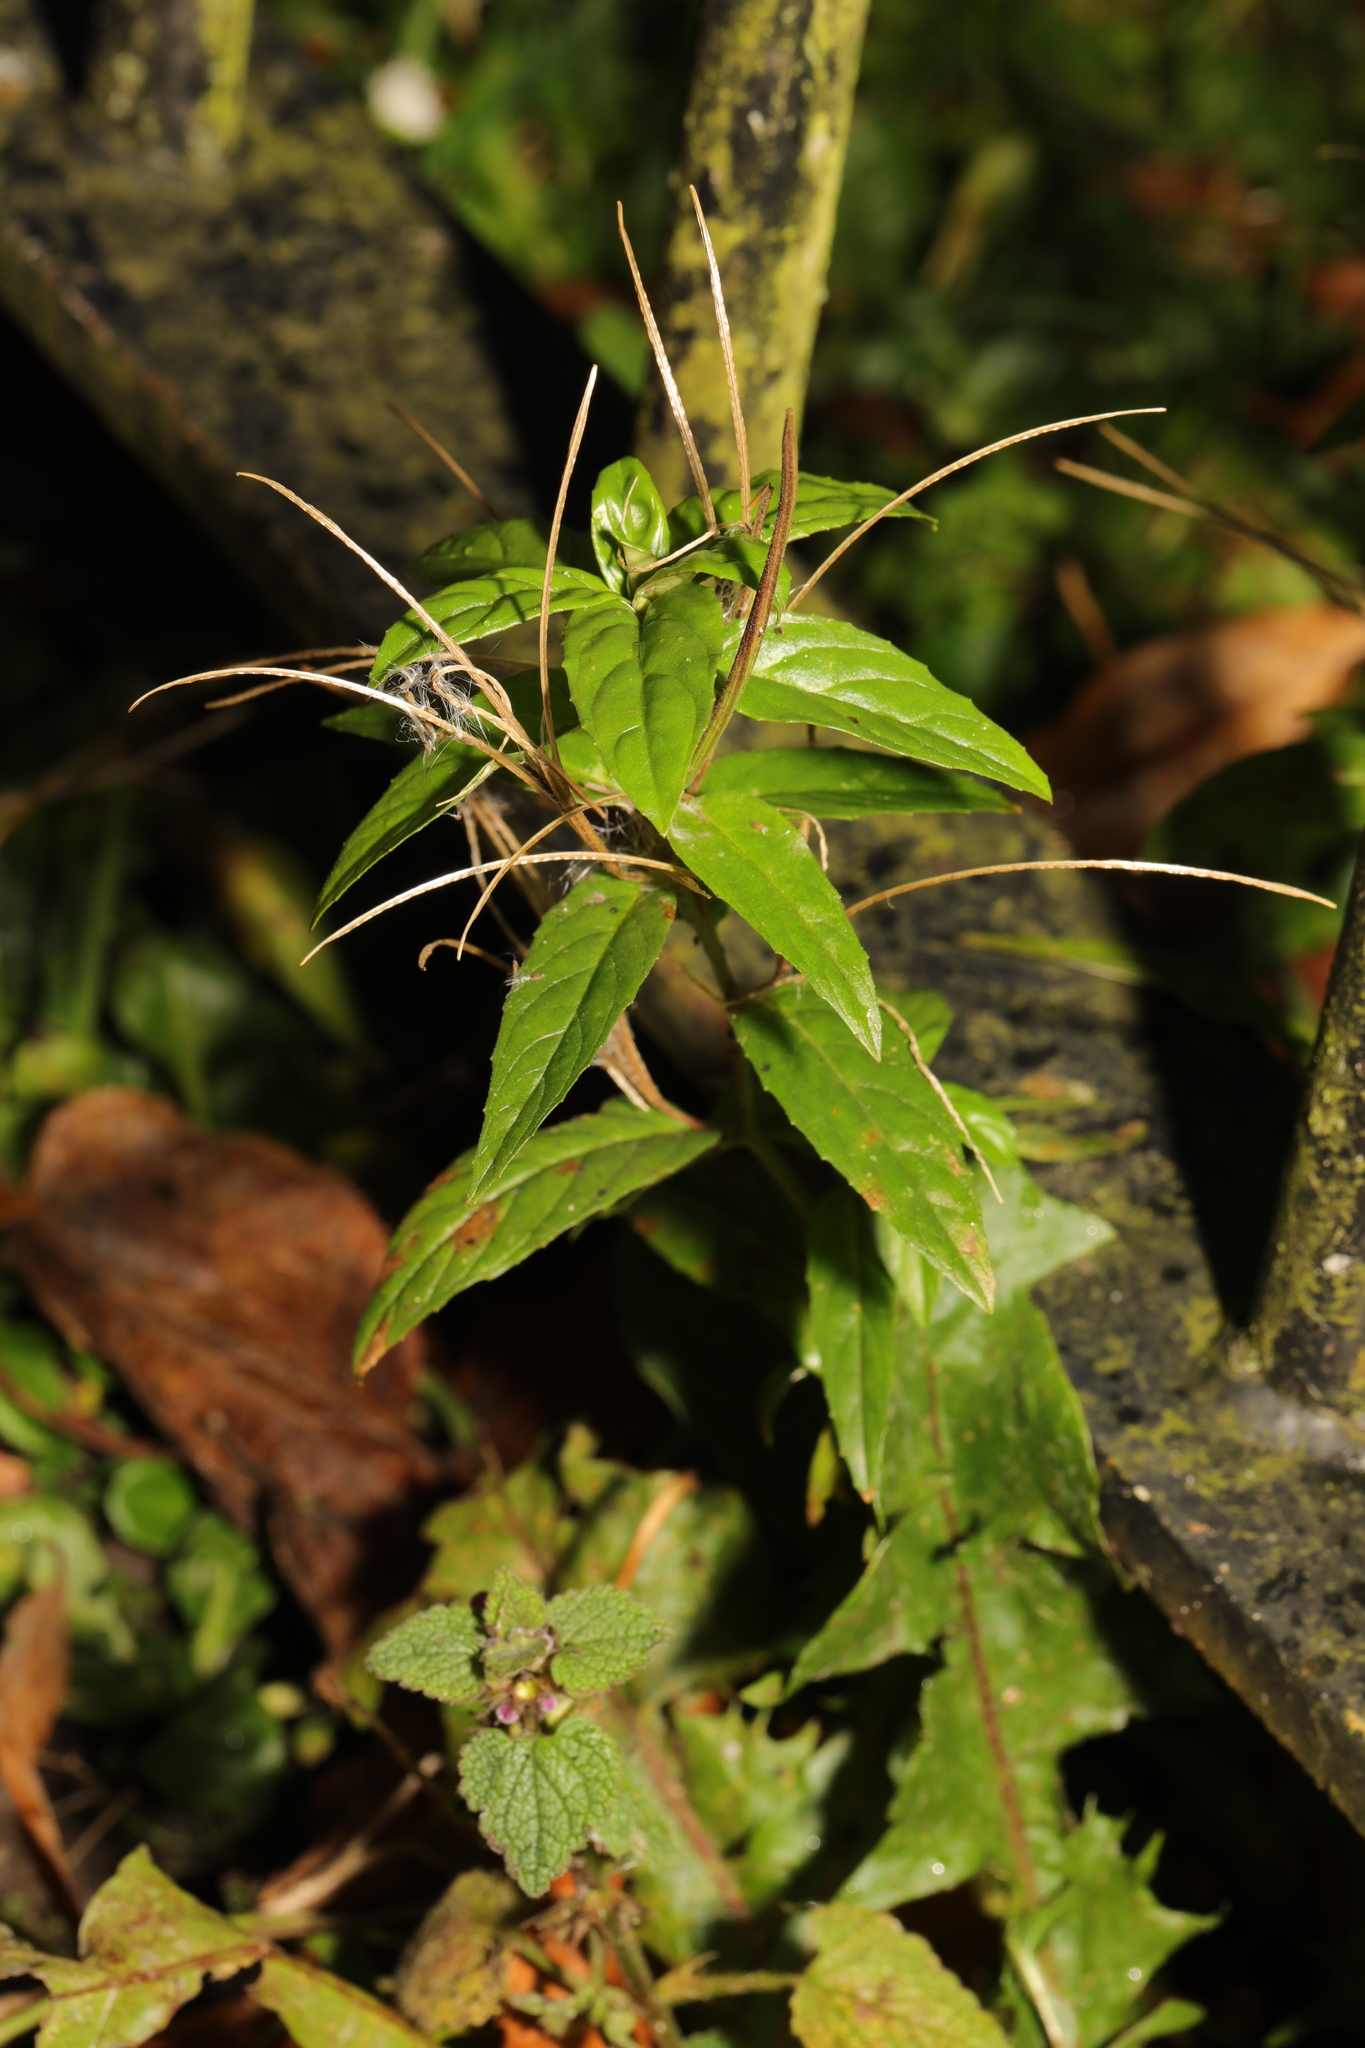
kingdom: Plantae
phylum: Tracheophyta
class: Magnoliopsida
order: Myrtales
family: Onagraceae
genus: Epilobium
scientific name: Epilobium montanum
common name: Broad-leaved willowherb
